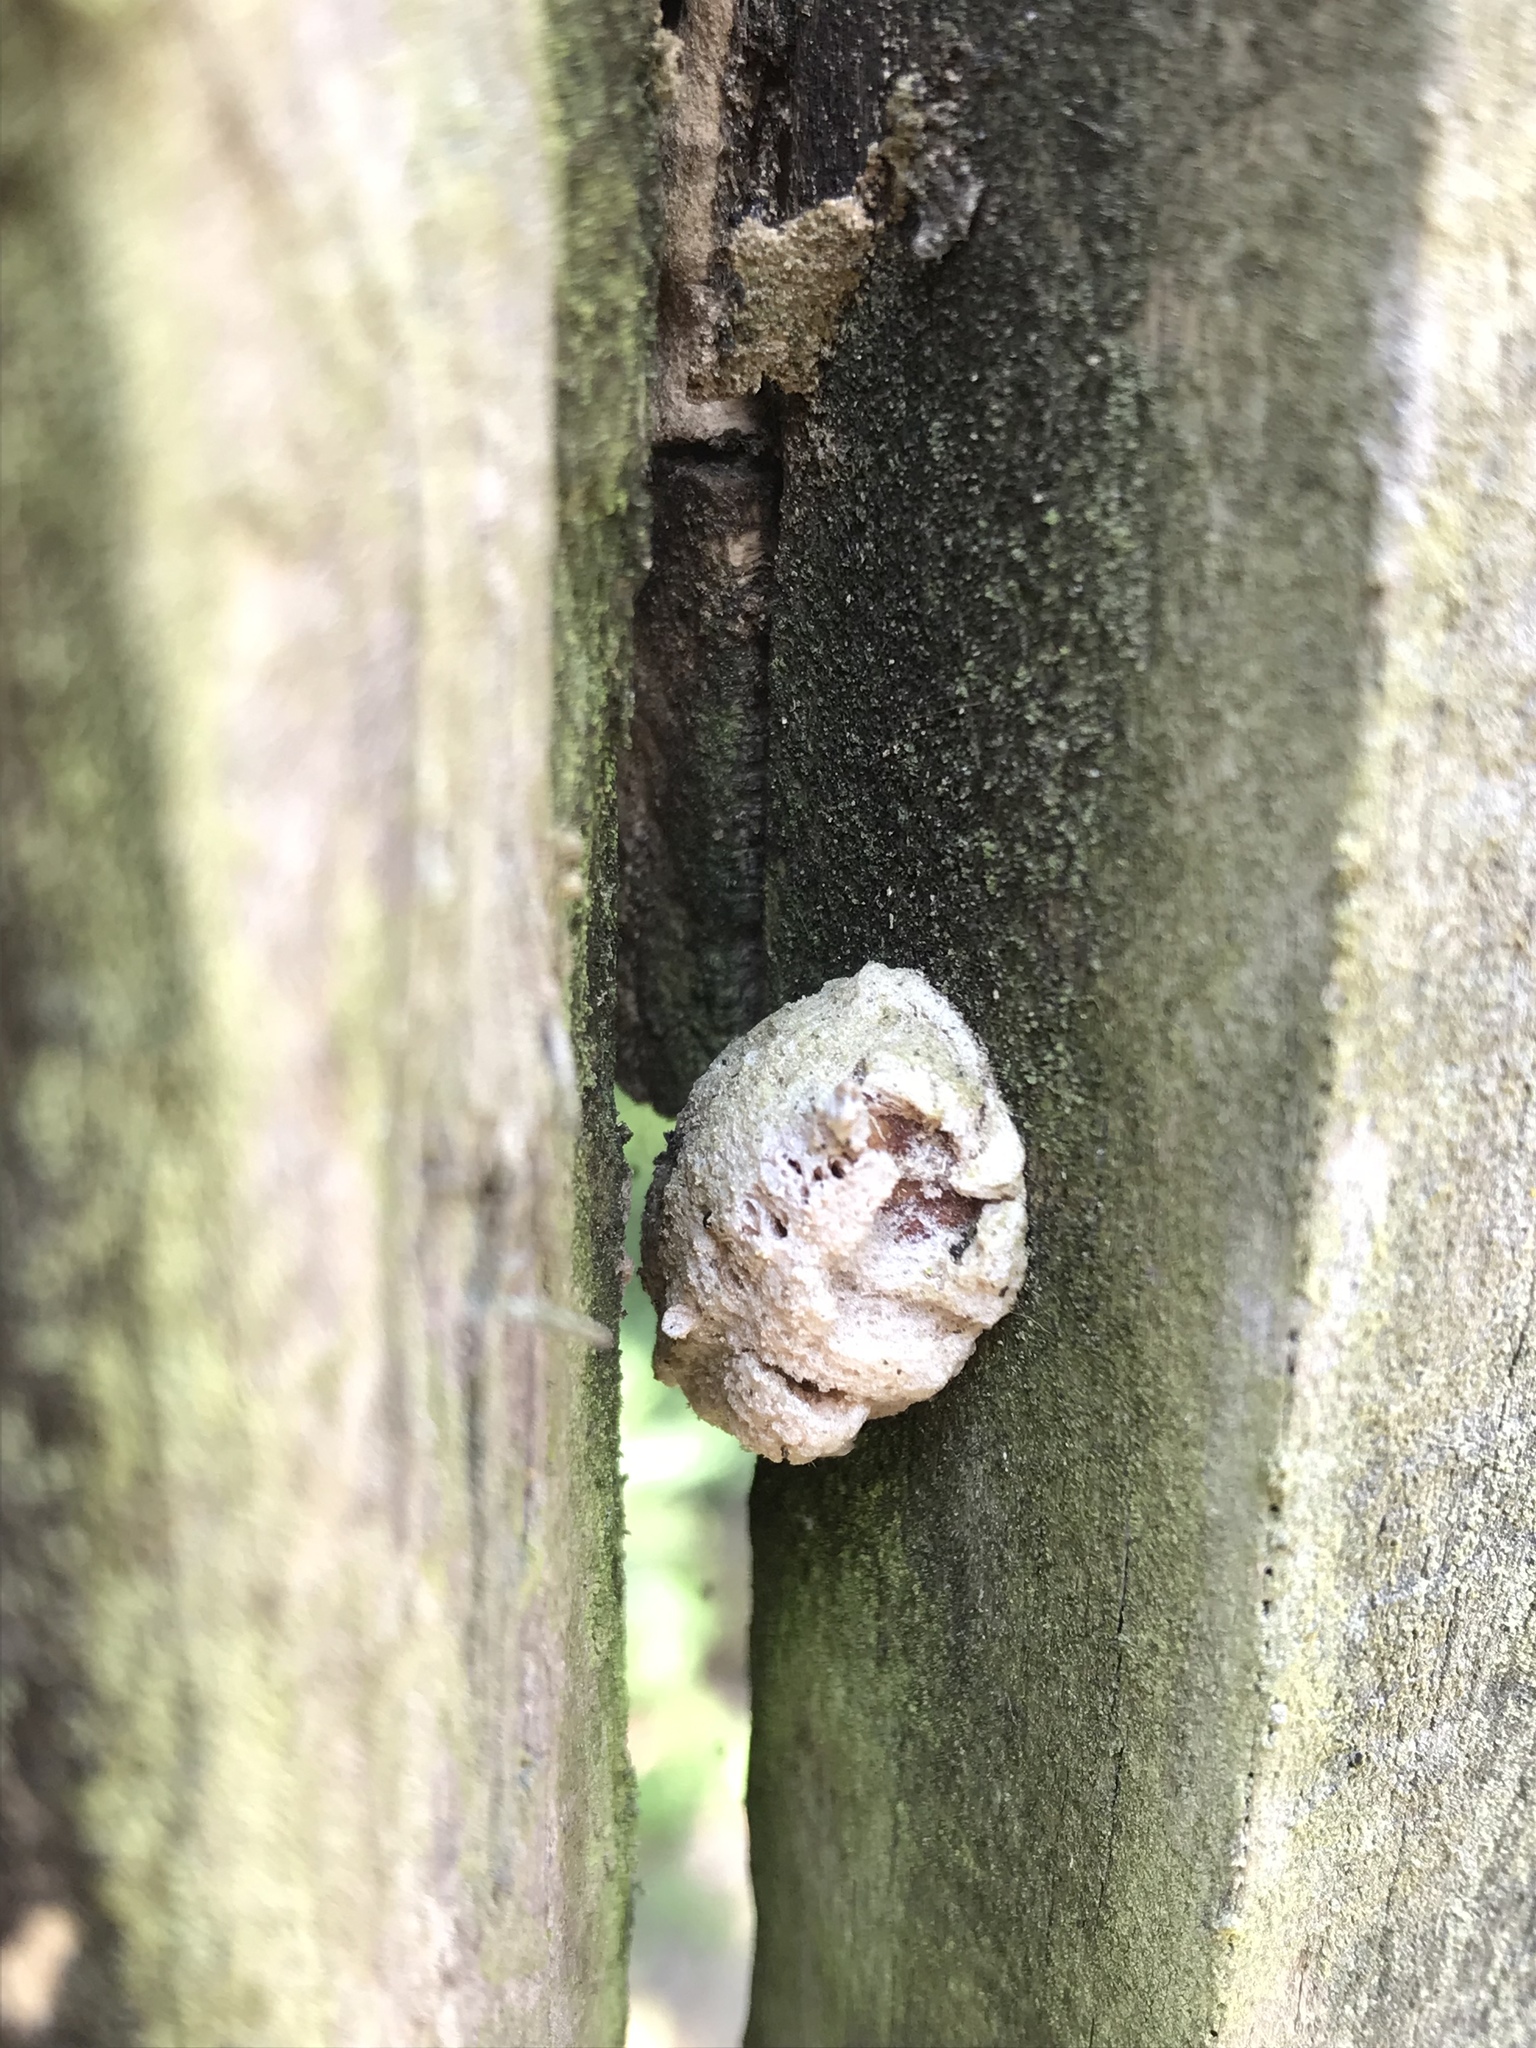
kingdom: Animalia
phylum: Arthropoda
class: Insecta
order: Mantodea
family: Miomantidae
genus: Miomantis
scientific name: Miomantis caffra
